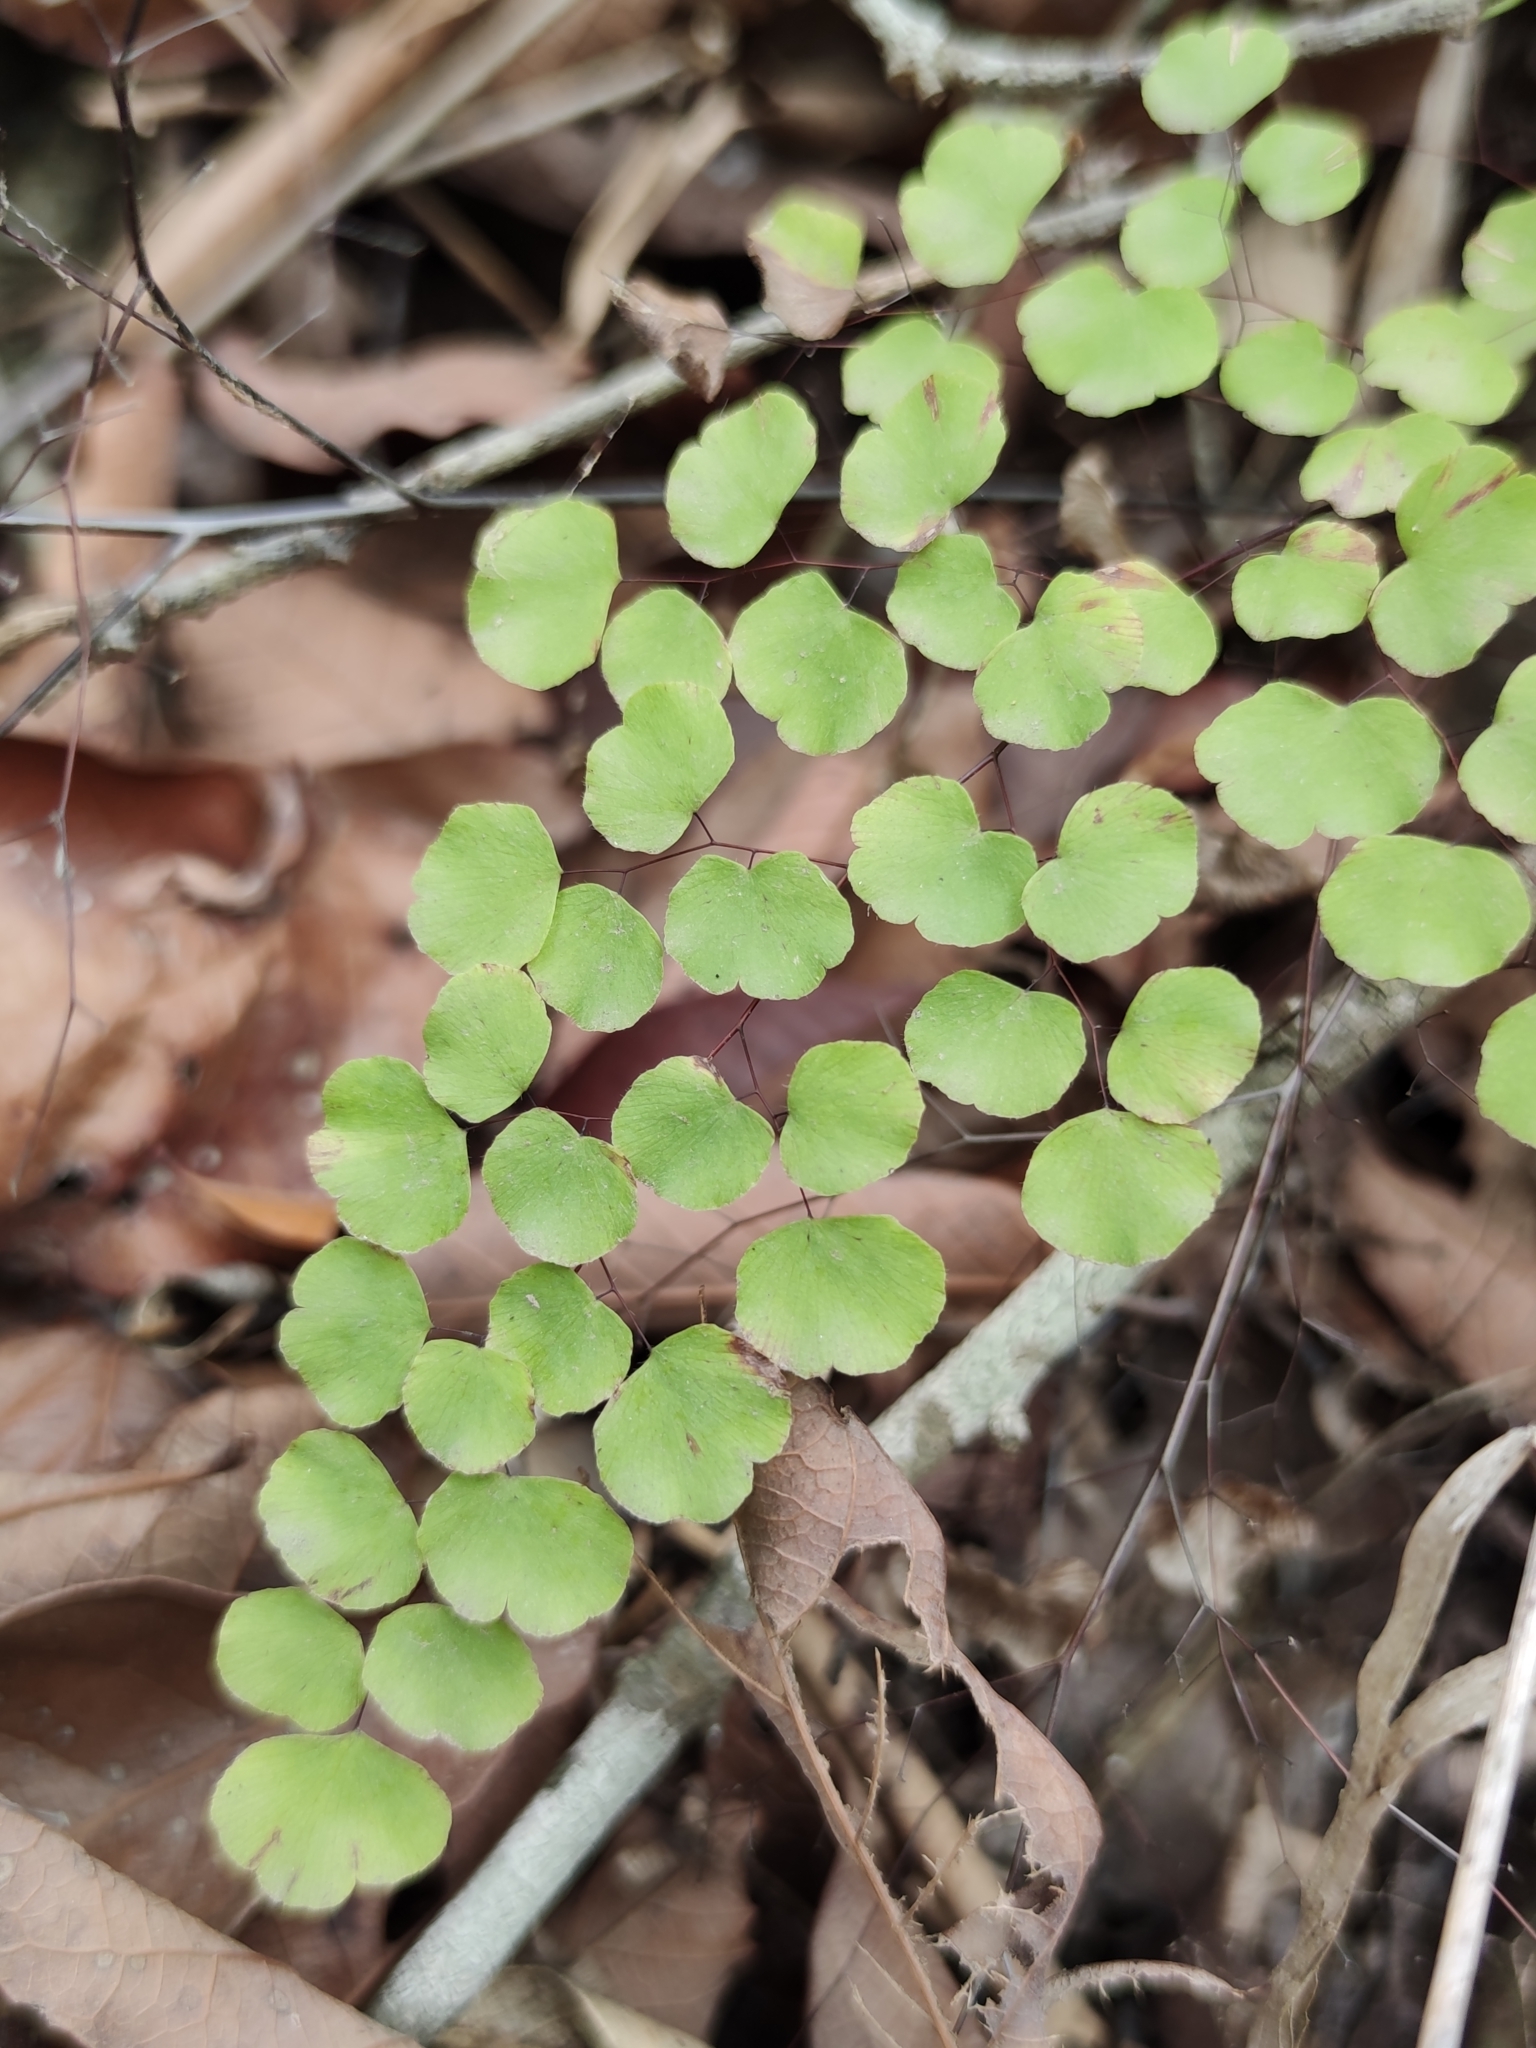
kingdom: Plantae
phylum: Tracheophyta
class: Polypodiopsida
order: Polypodiales
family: Pteridaceae
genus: Adiantum
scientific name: Adiantum tricholepis
